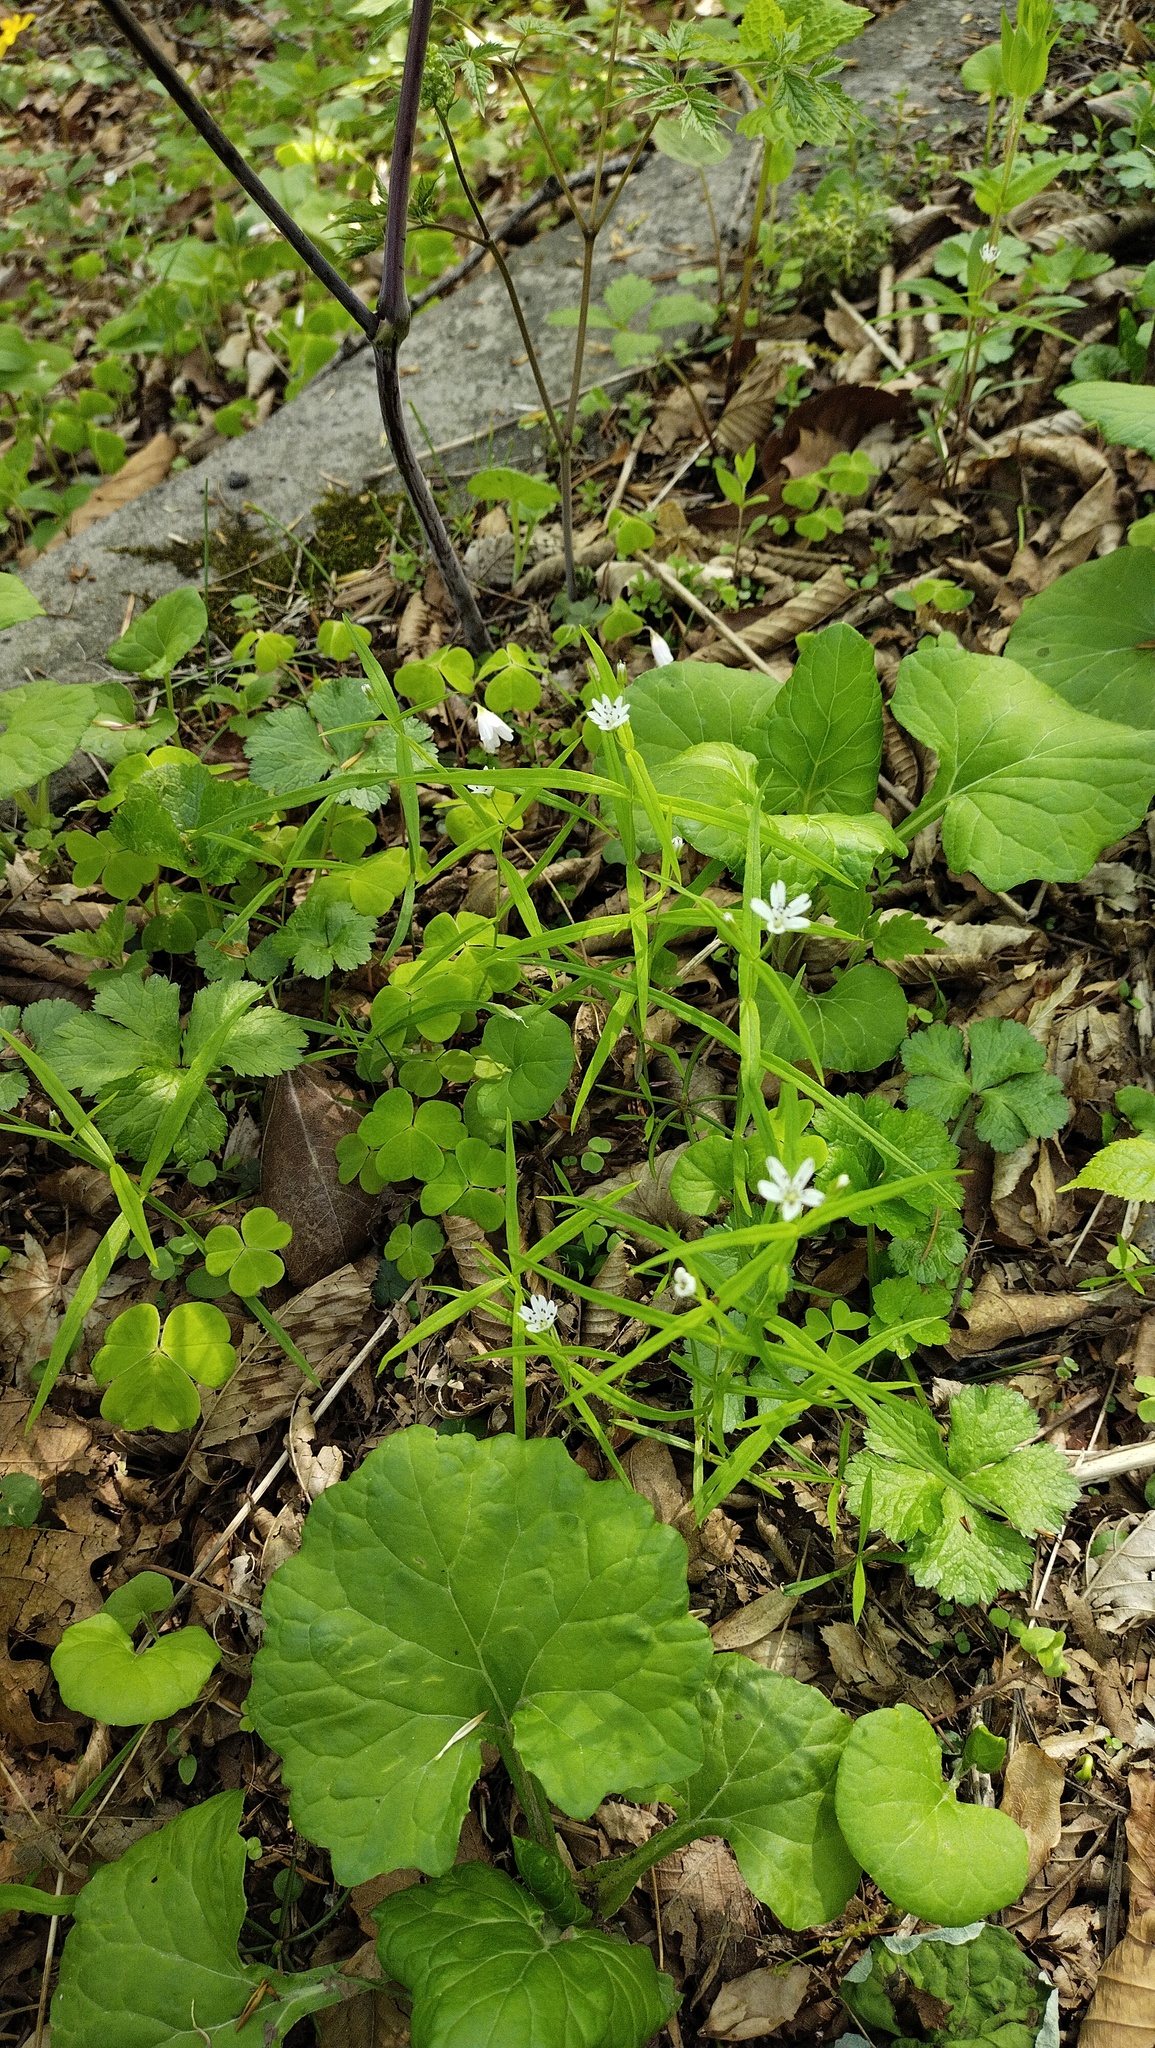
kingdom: Plantae
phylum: Tracheophyta
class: Magnoliopsida
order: Caryophyllales
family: Caryophyllaceae
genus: Pseudostellaria
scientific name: Pseudostellaria sylvatica
